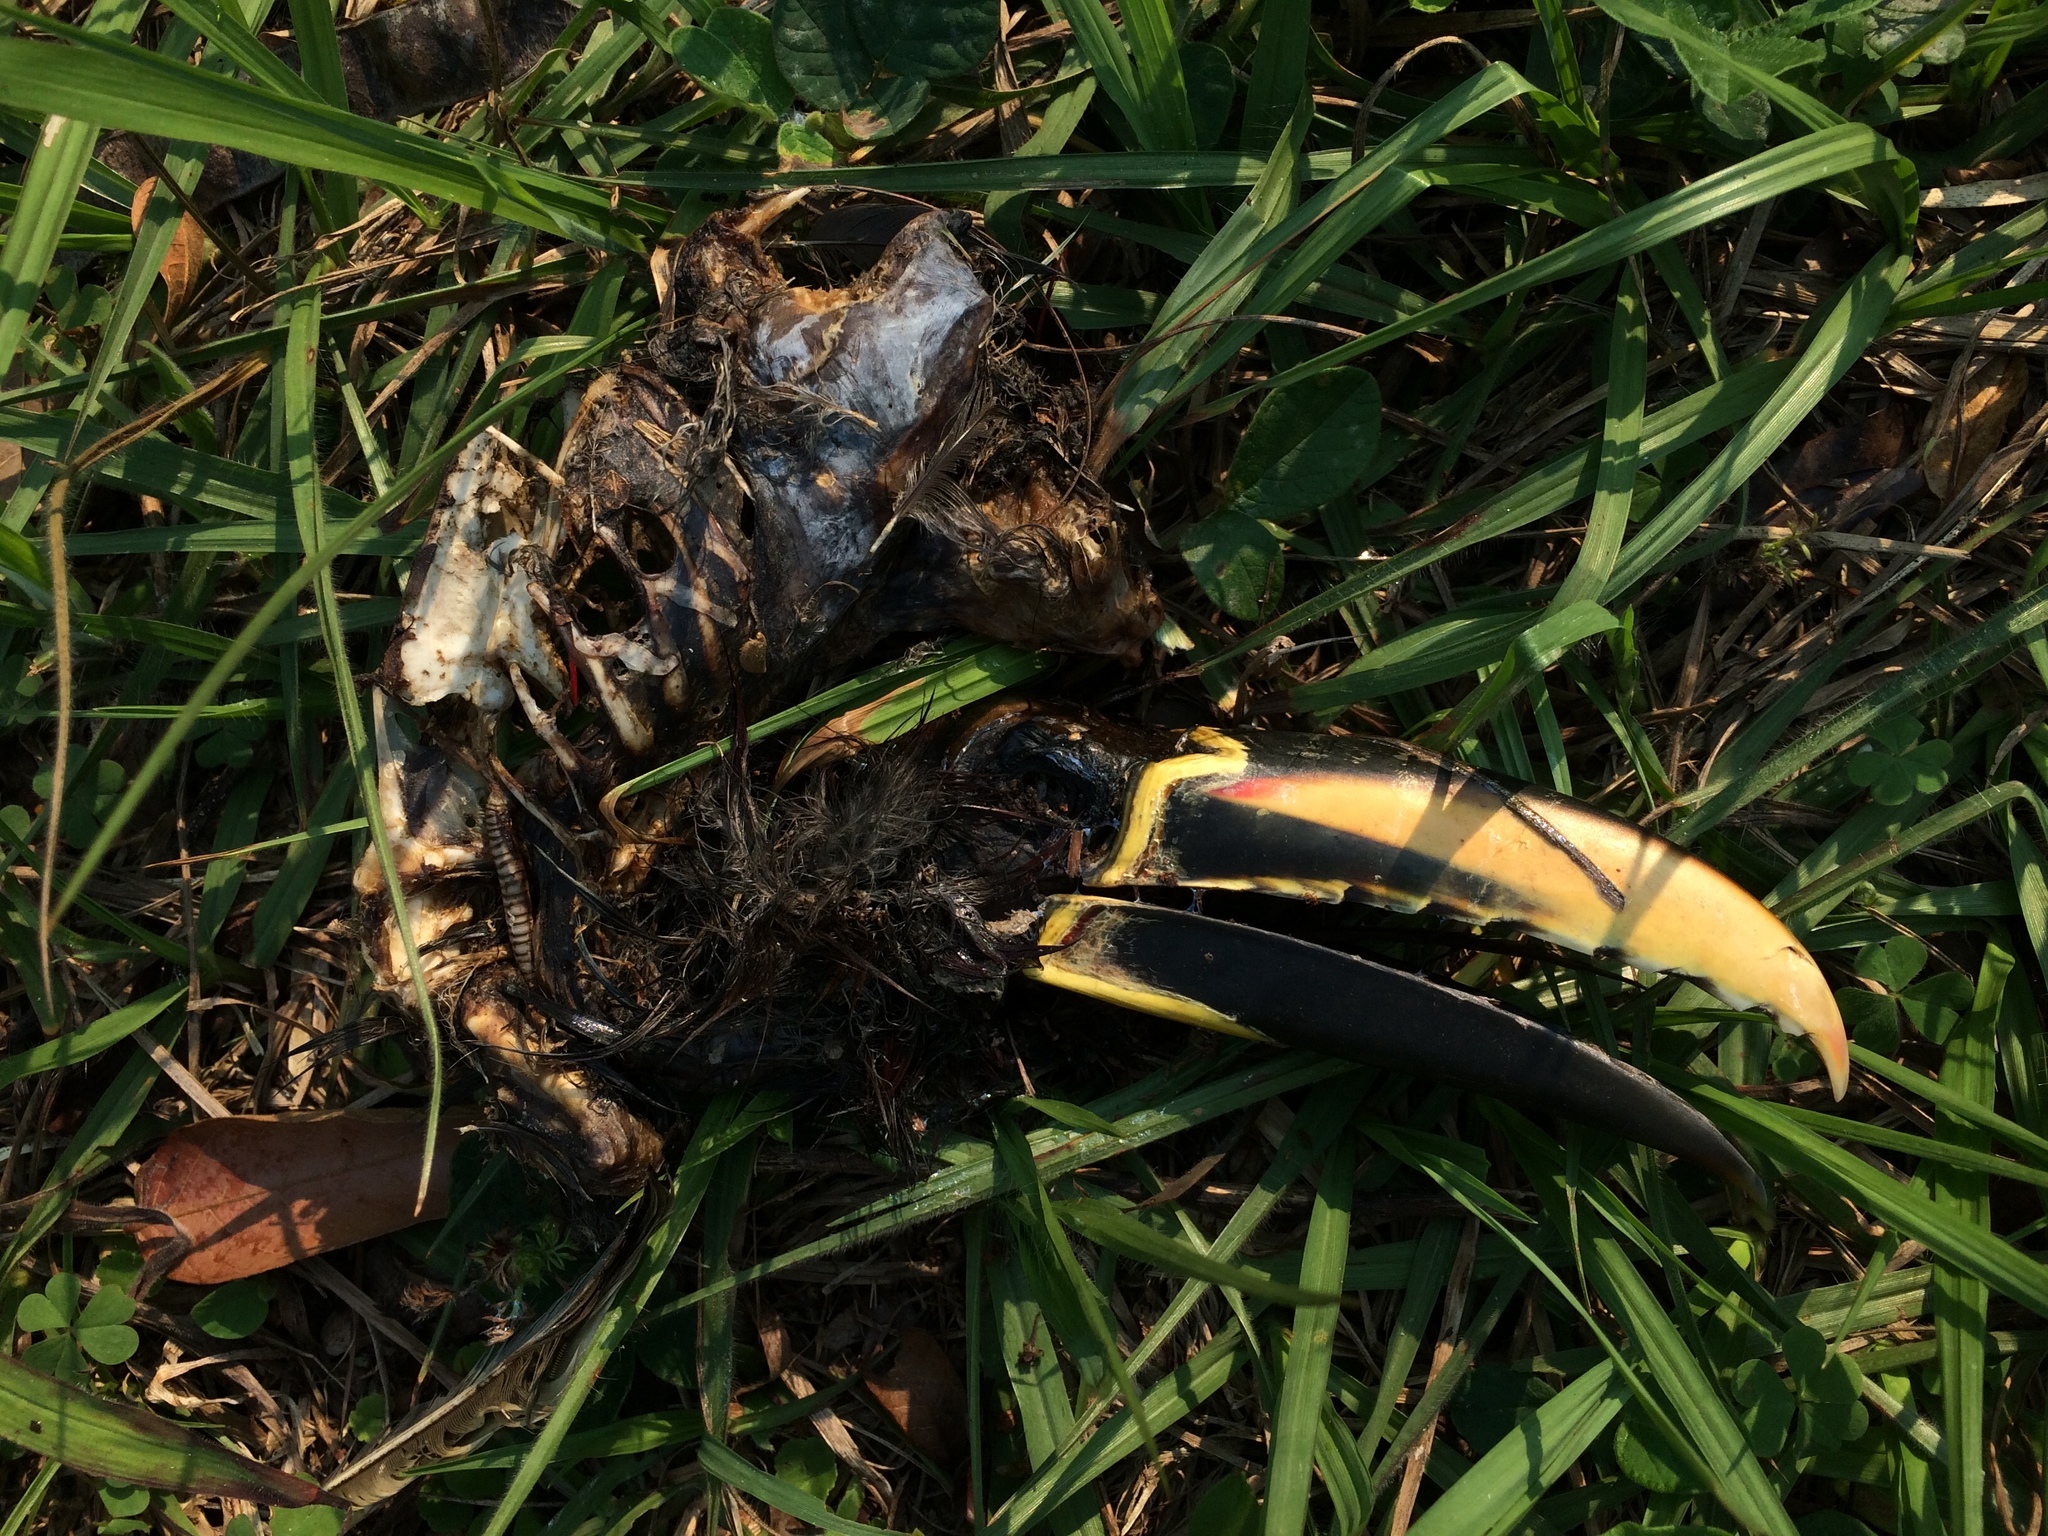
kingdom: Animalia
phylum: Chordata
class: Aves
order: Piciformes
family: Ramphastidae
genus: Pteroglossus
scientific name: Pteroglossus castanotis
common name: Chestnut-eared aracari
